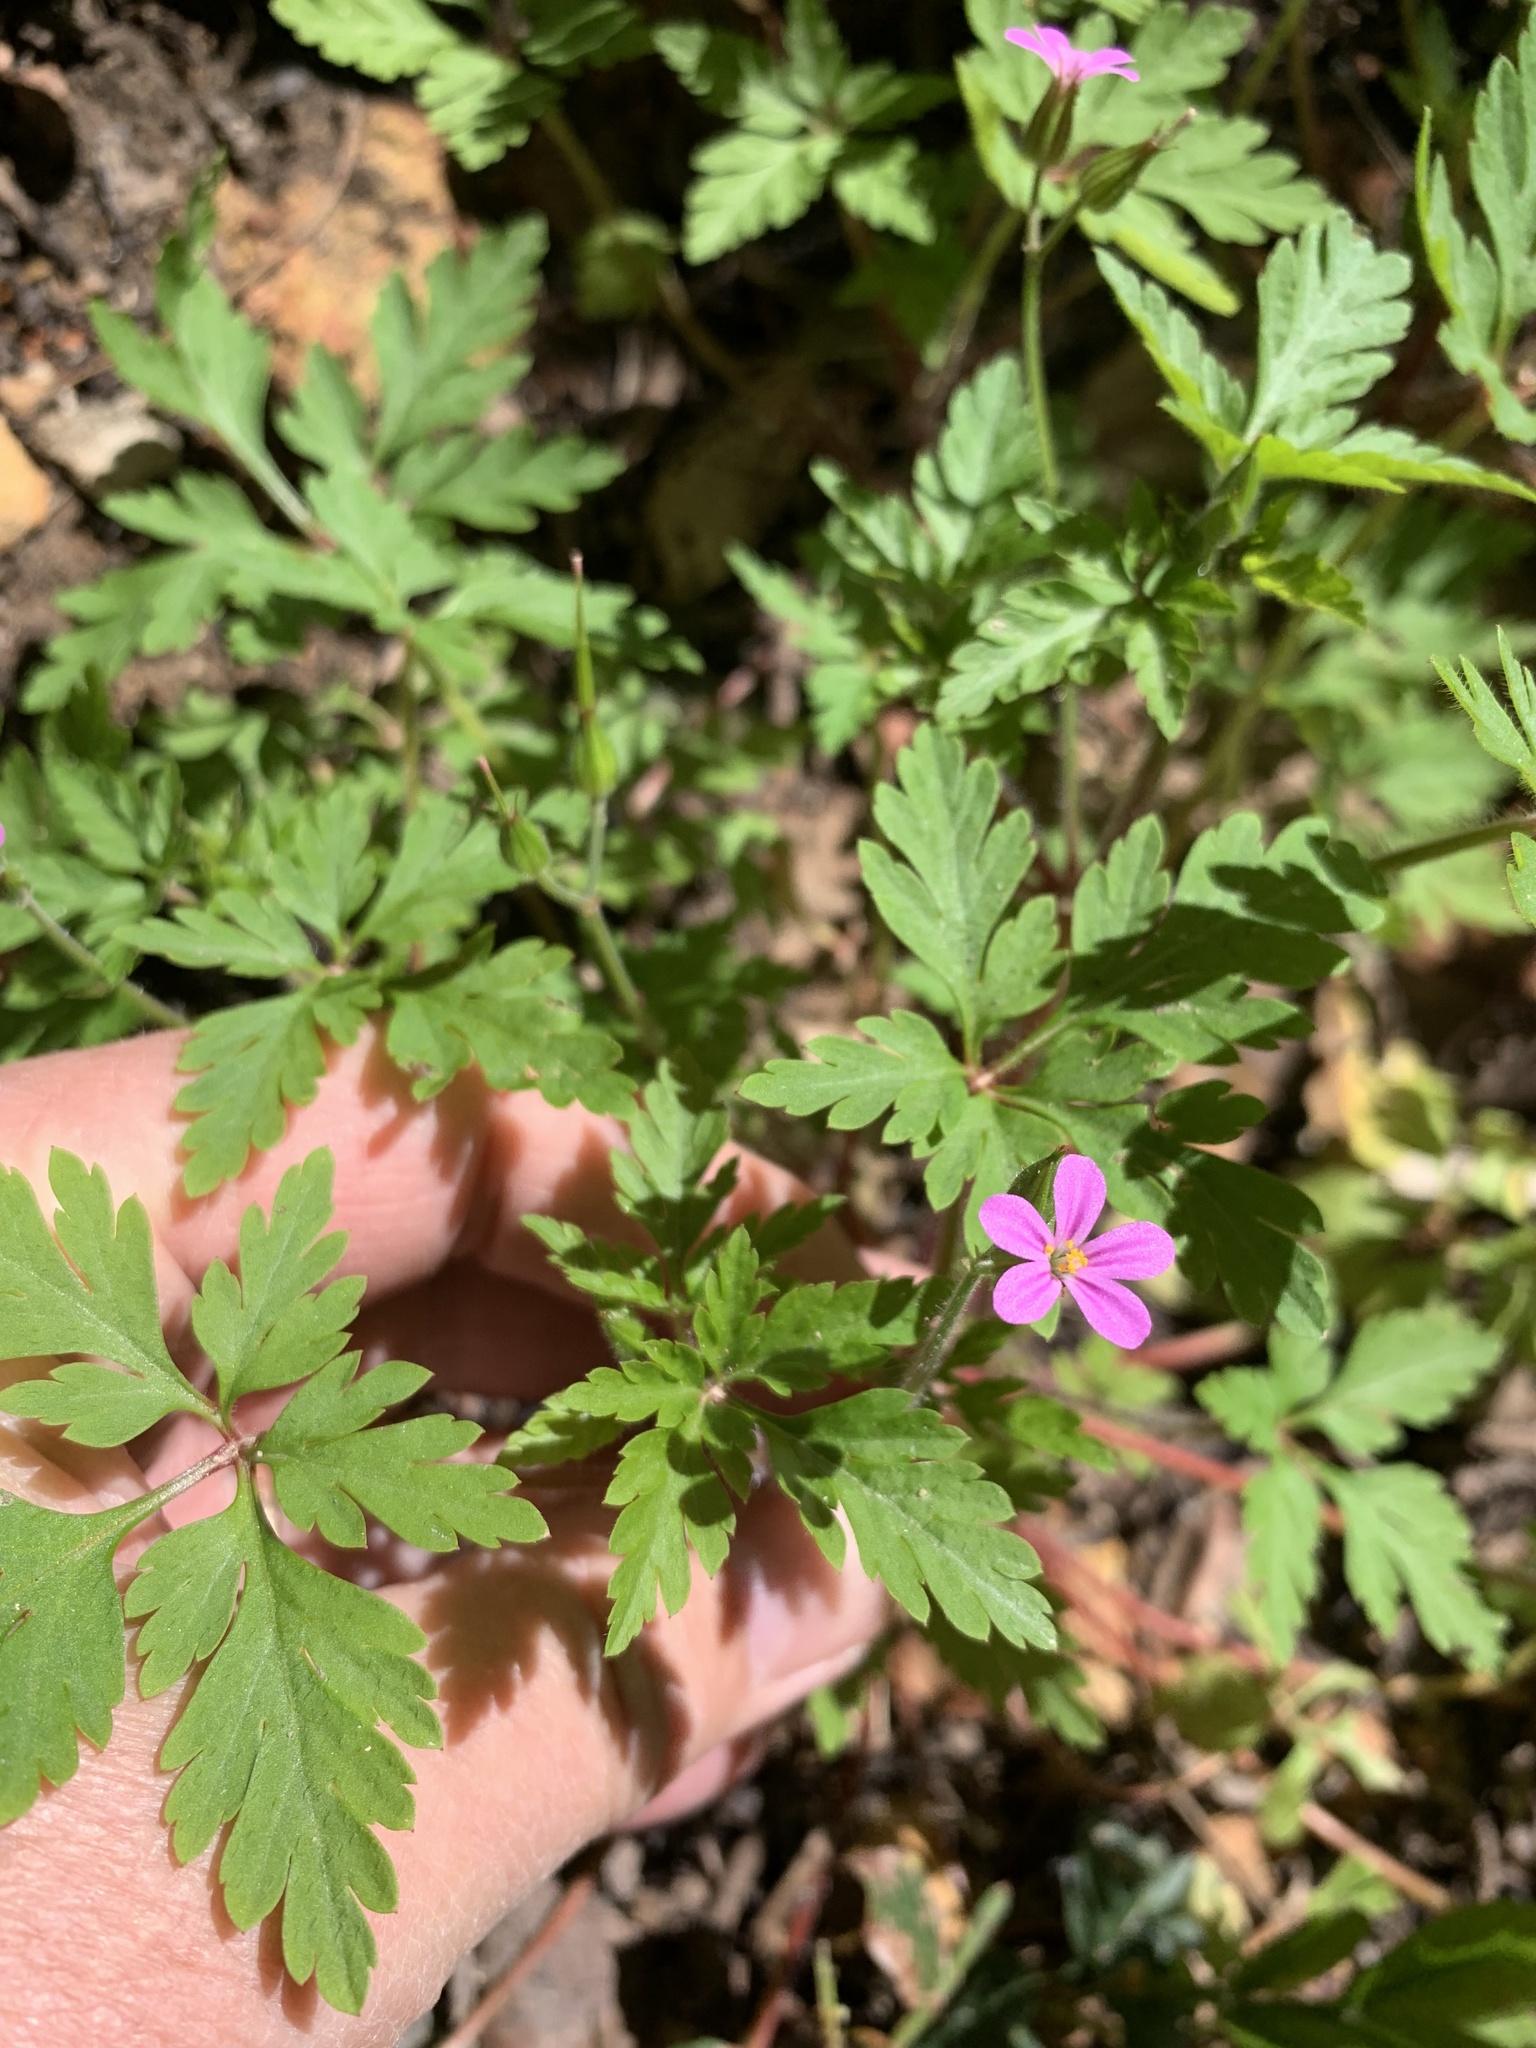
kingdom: Plantae
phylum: Tracheophyta
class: Magnoliopsida
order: Geraniales
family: Geraniaceae
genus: Geranium
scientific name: Geranium purpureum
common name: Little-robin
